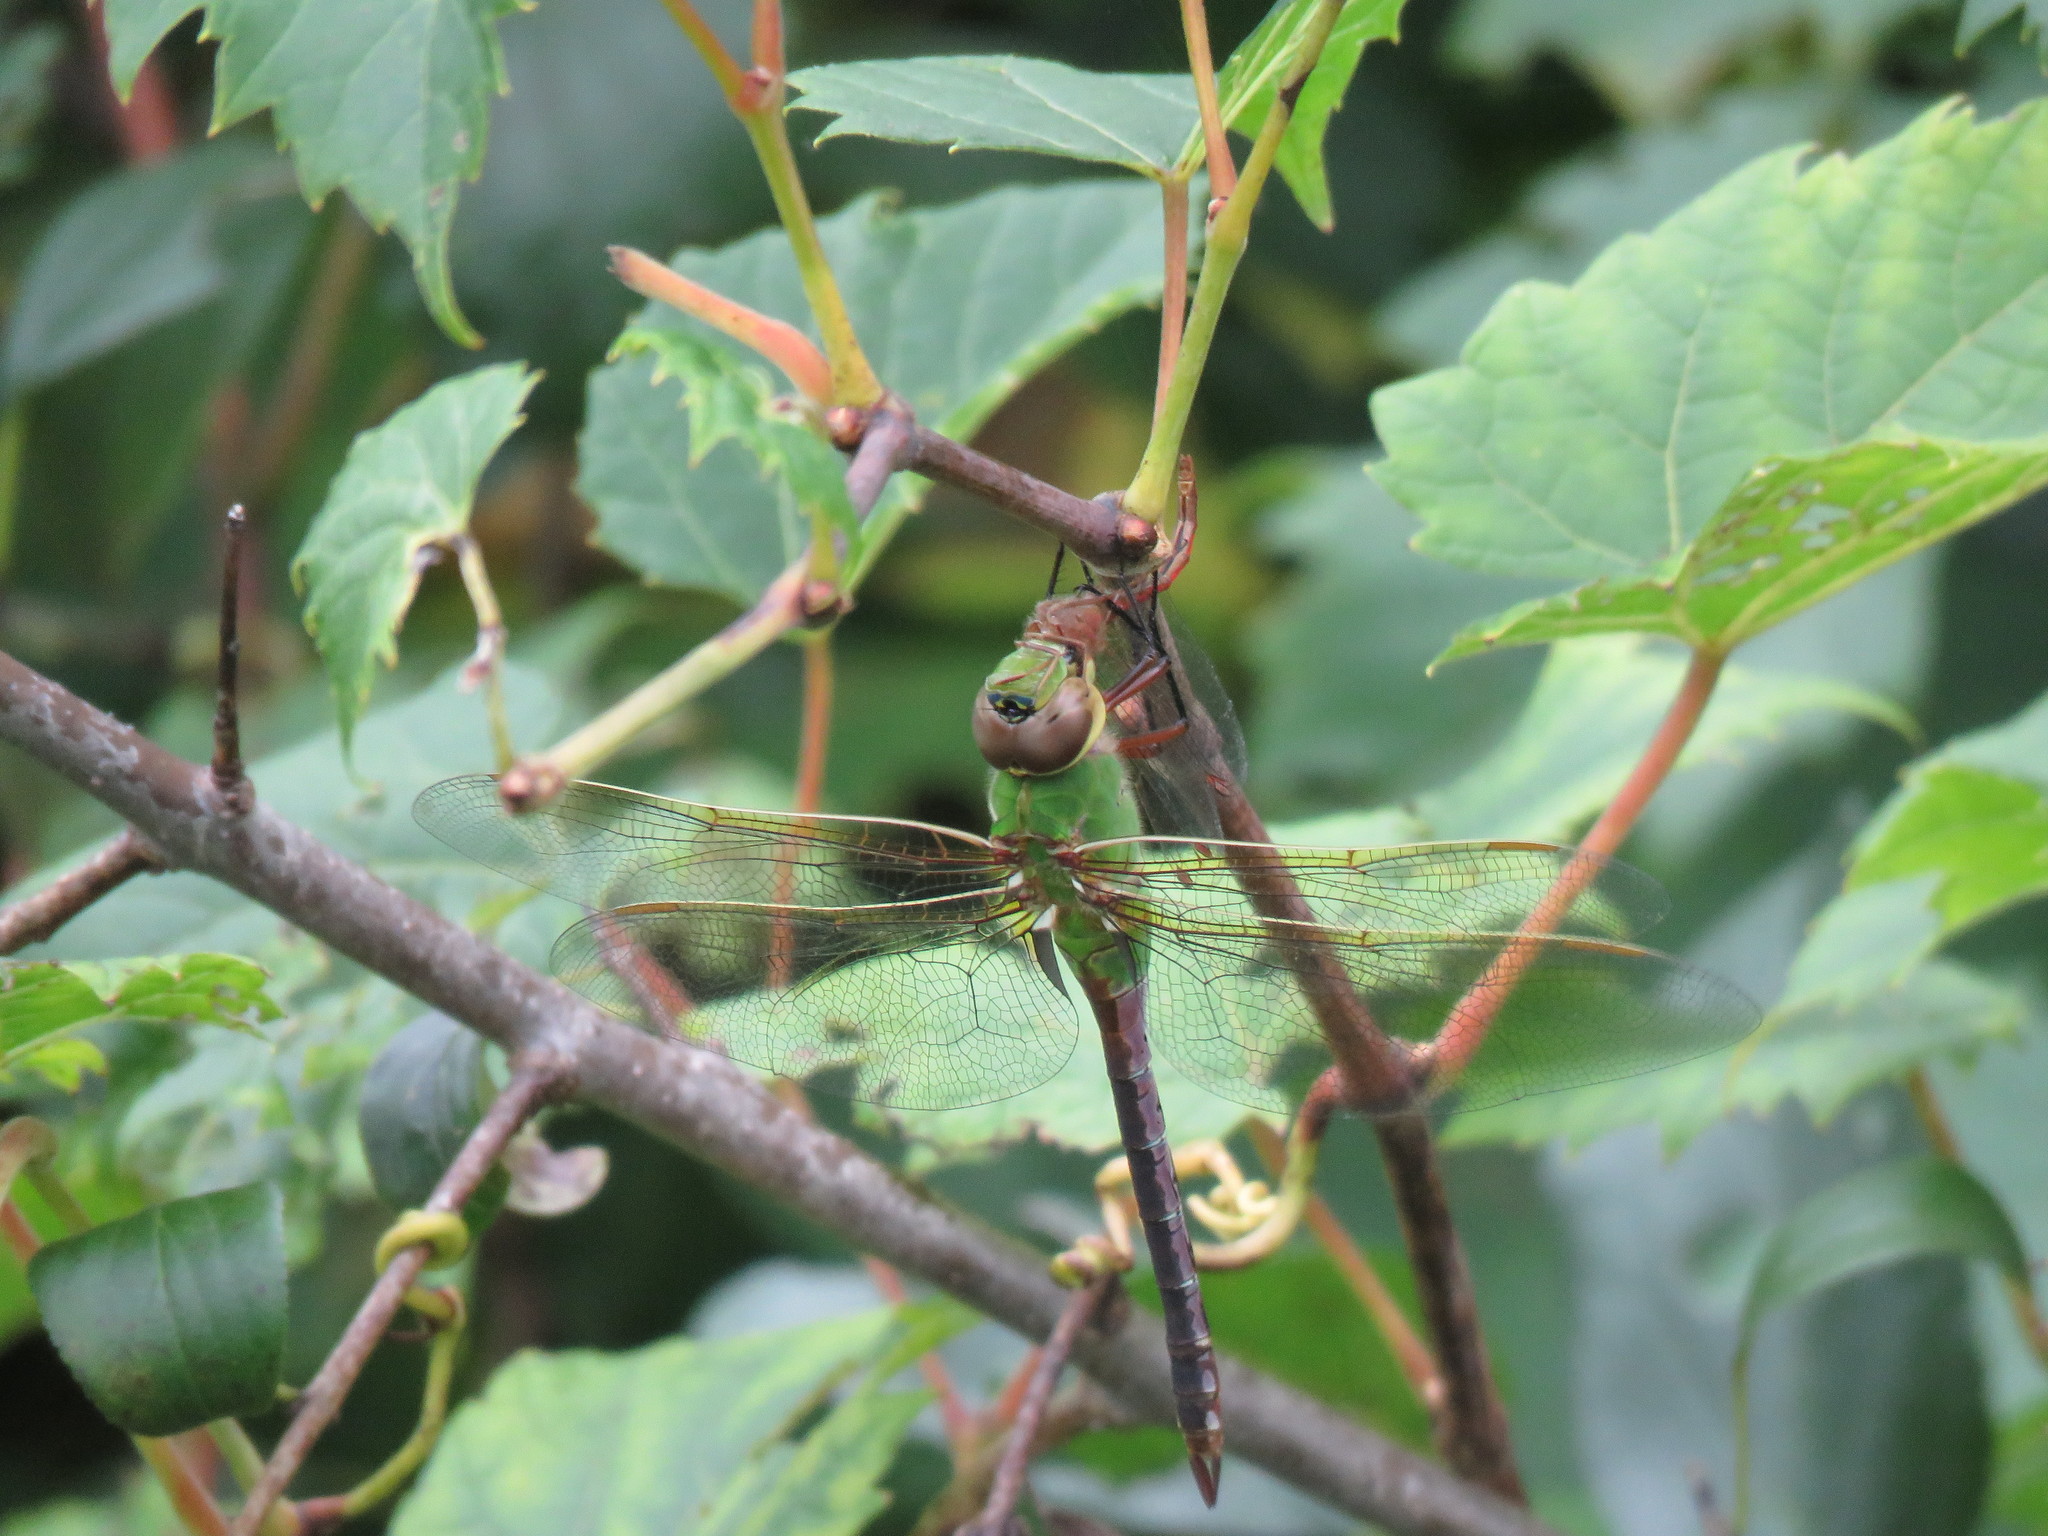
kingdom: Animalia
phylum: Arthropoda
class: Insecta
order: Odonata
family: Aeshnidae
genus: Anax
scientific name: Anax junius
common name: Common green darner
